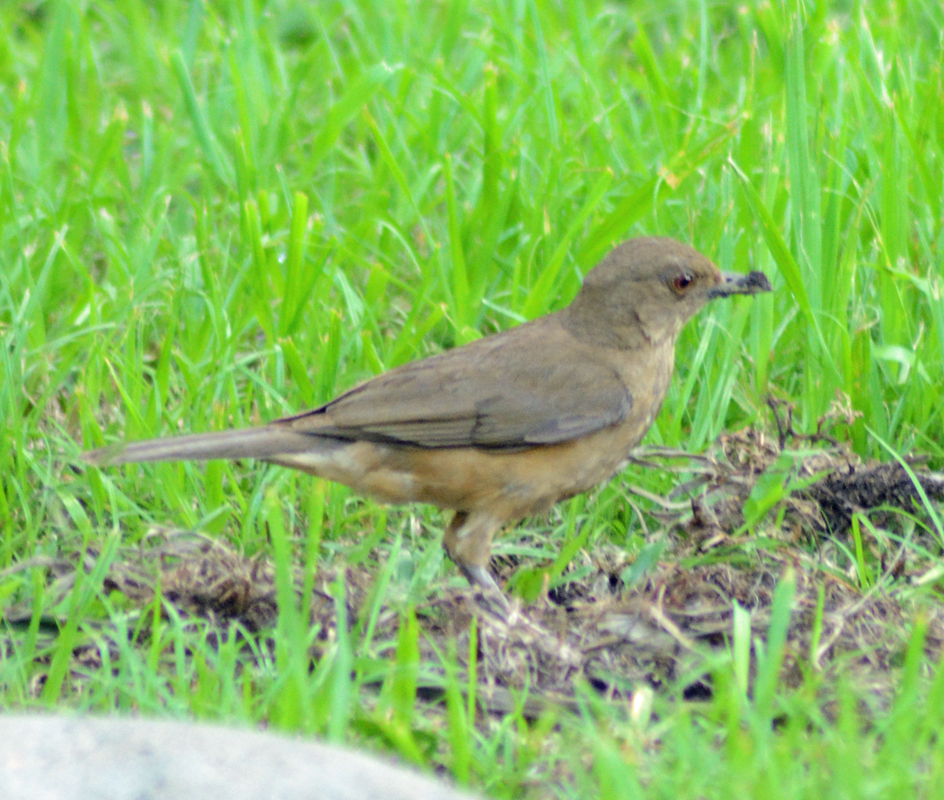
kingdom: Animalia
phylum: Chordata
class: Aves
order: Passeriformes
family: Turdidae
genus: Turdus
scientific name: Turdus grayi
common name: Clay-colored thrush
